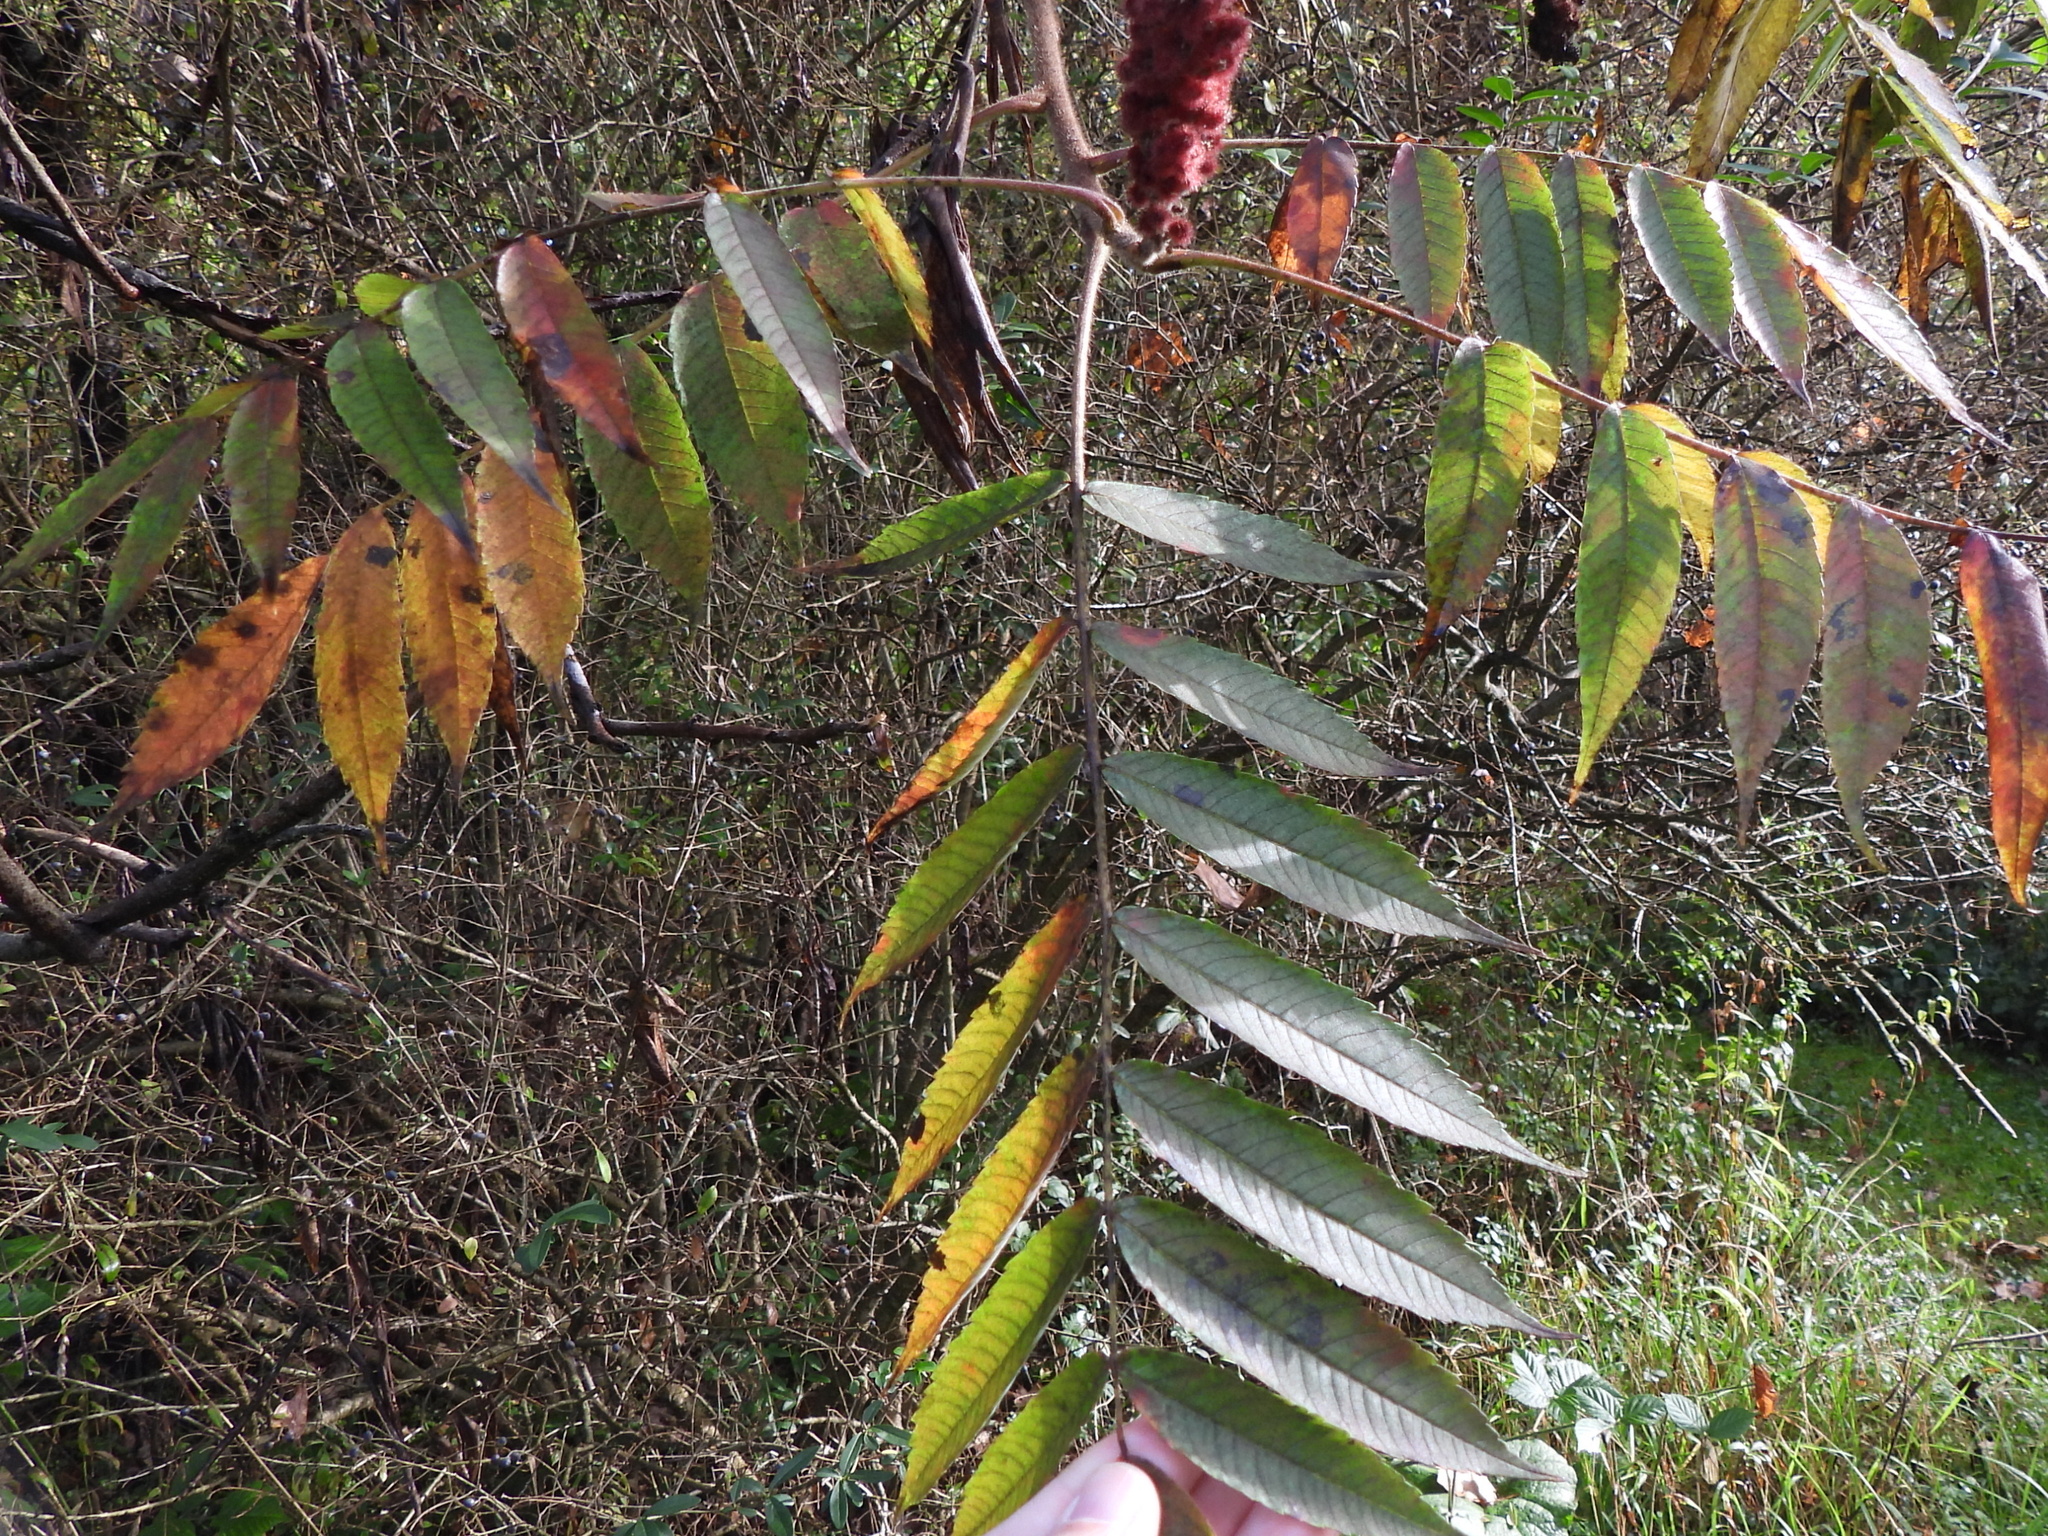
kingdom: Plantae
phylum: Tracheophyta
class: Magnoliopsida
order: Sapindales
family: Anacardiaceae
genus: Rhus
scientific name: Rhus typhina
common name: Staghorn sumac
